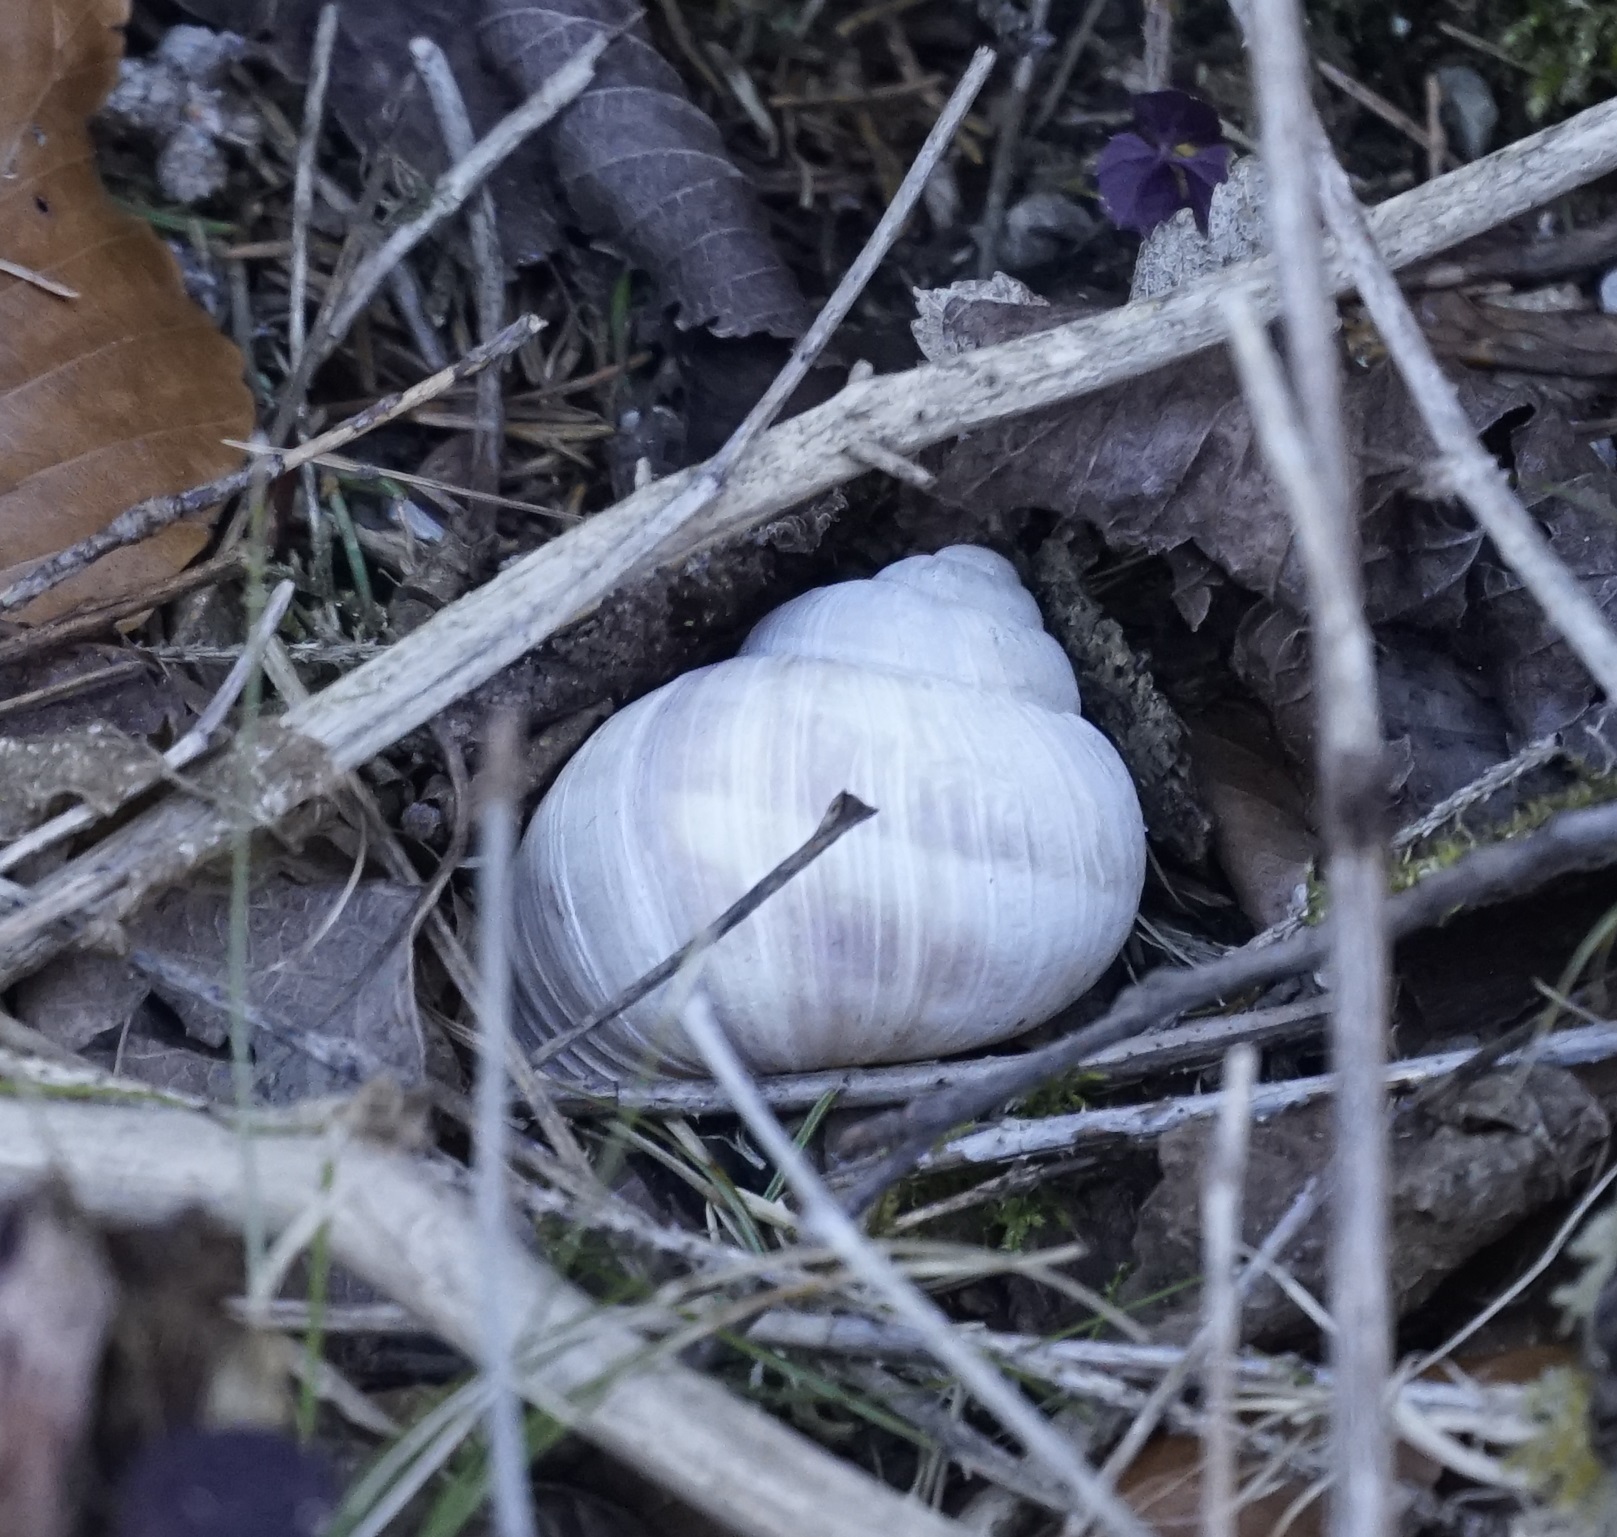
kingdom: Animalia
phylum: Mollusca
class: Gastropoda
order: Stylommatophora
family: Helicidae
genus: Helix
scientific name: Helix pomatia
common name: Roman snail
